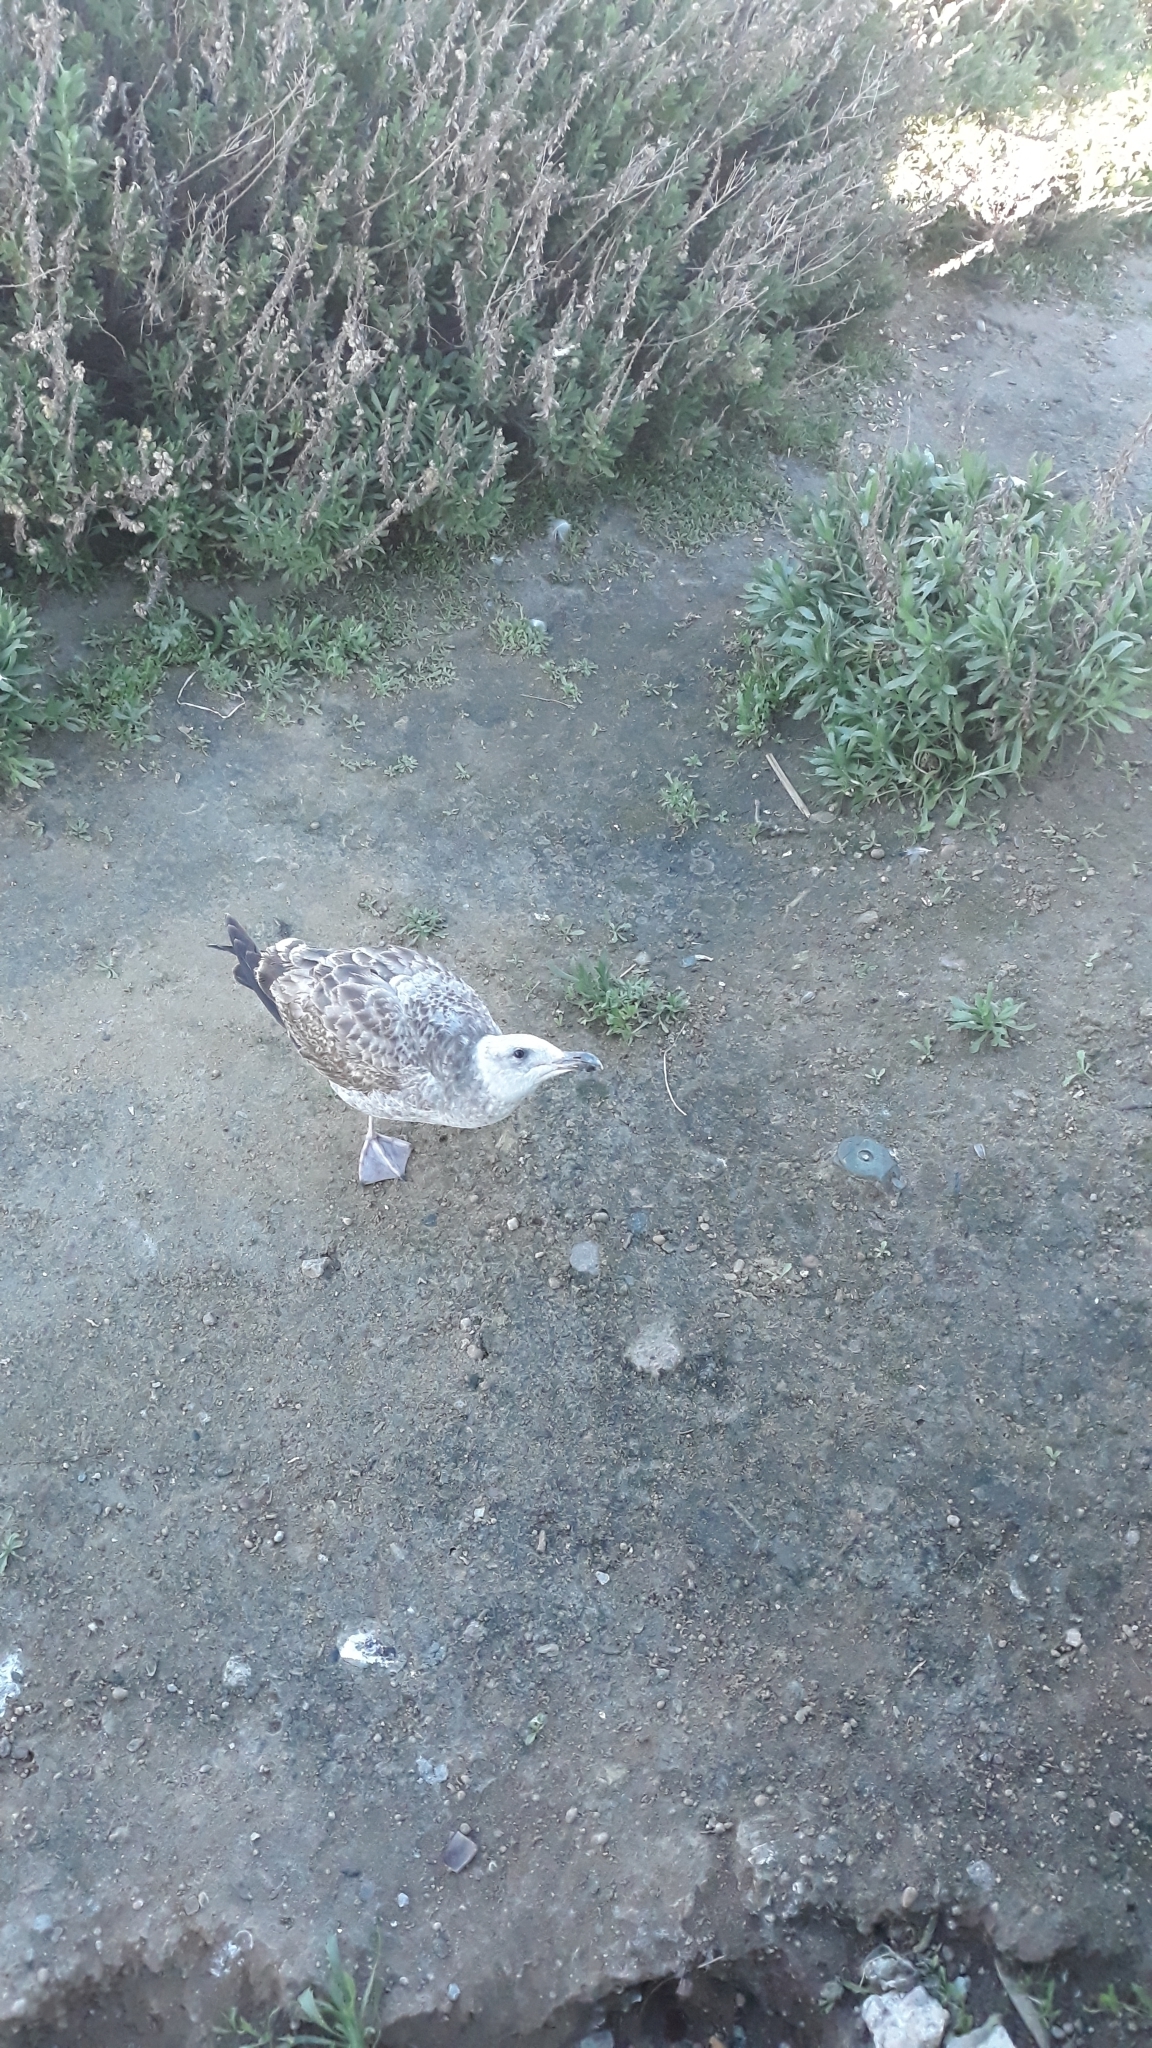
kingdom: Animalia
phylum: Chordata
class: Aves
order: Charadriiformes
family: Laridae
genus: Larus
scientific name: Larus occidentalis
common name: Western gull
